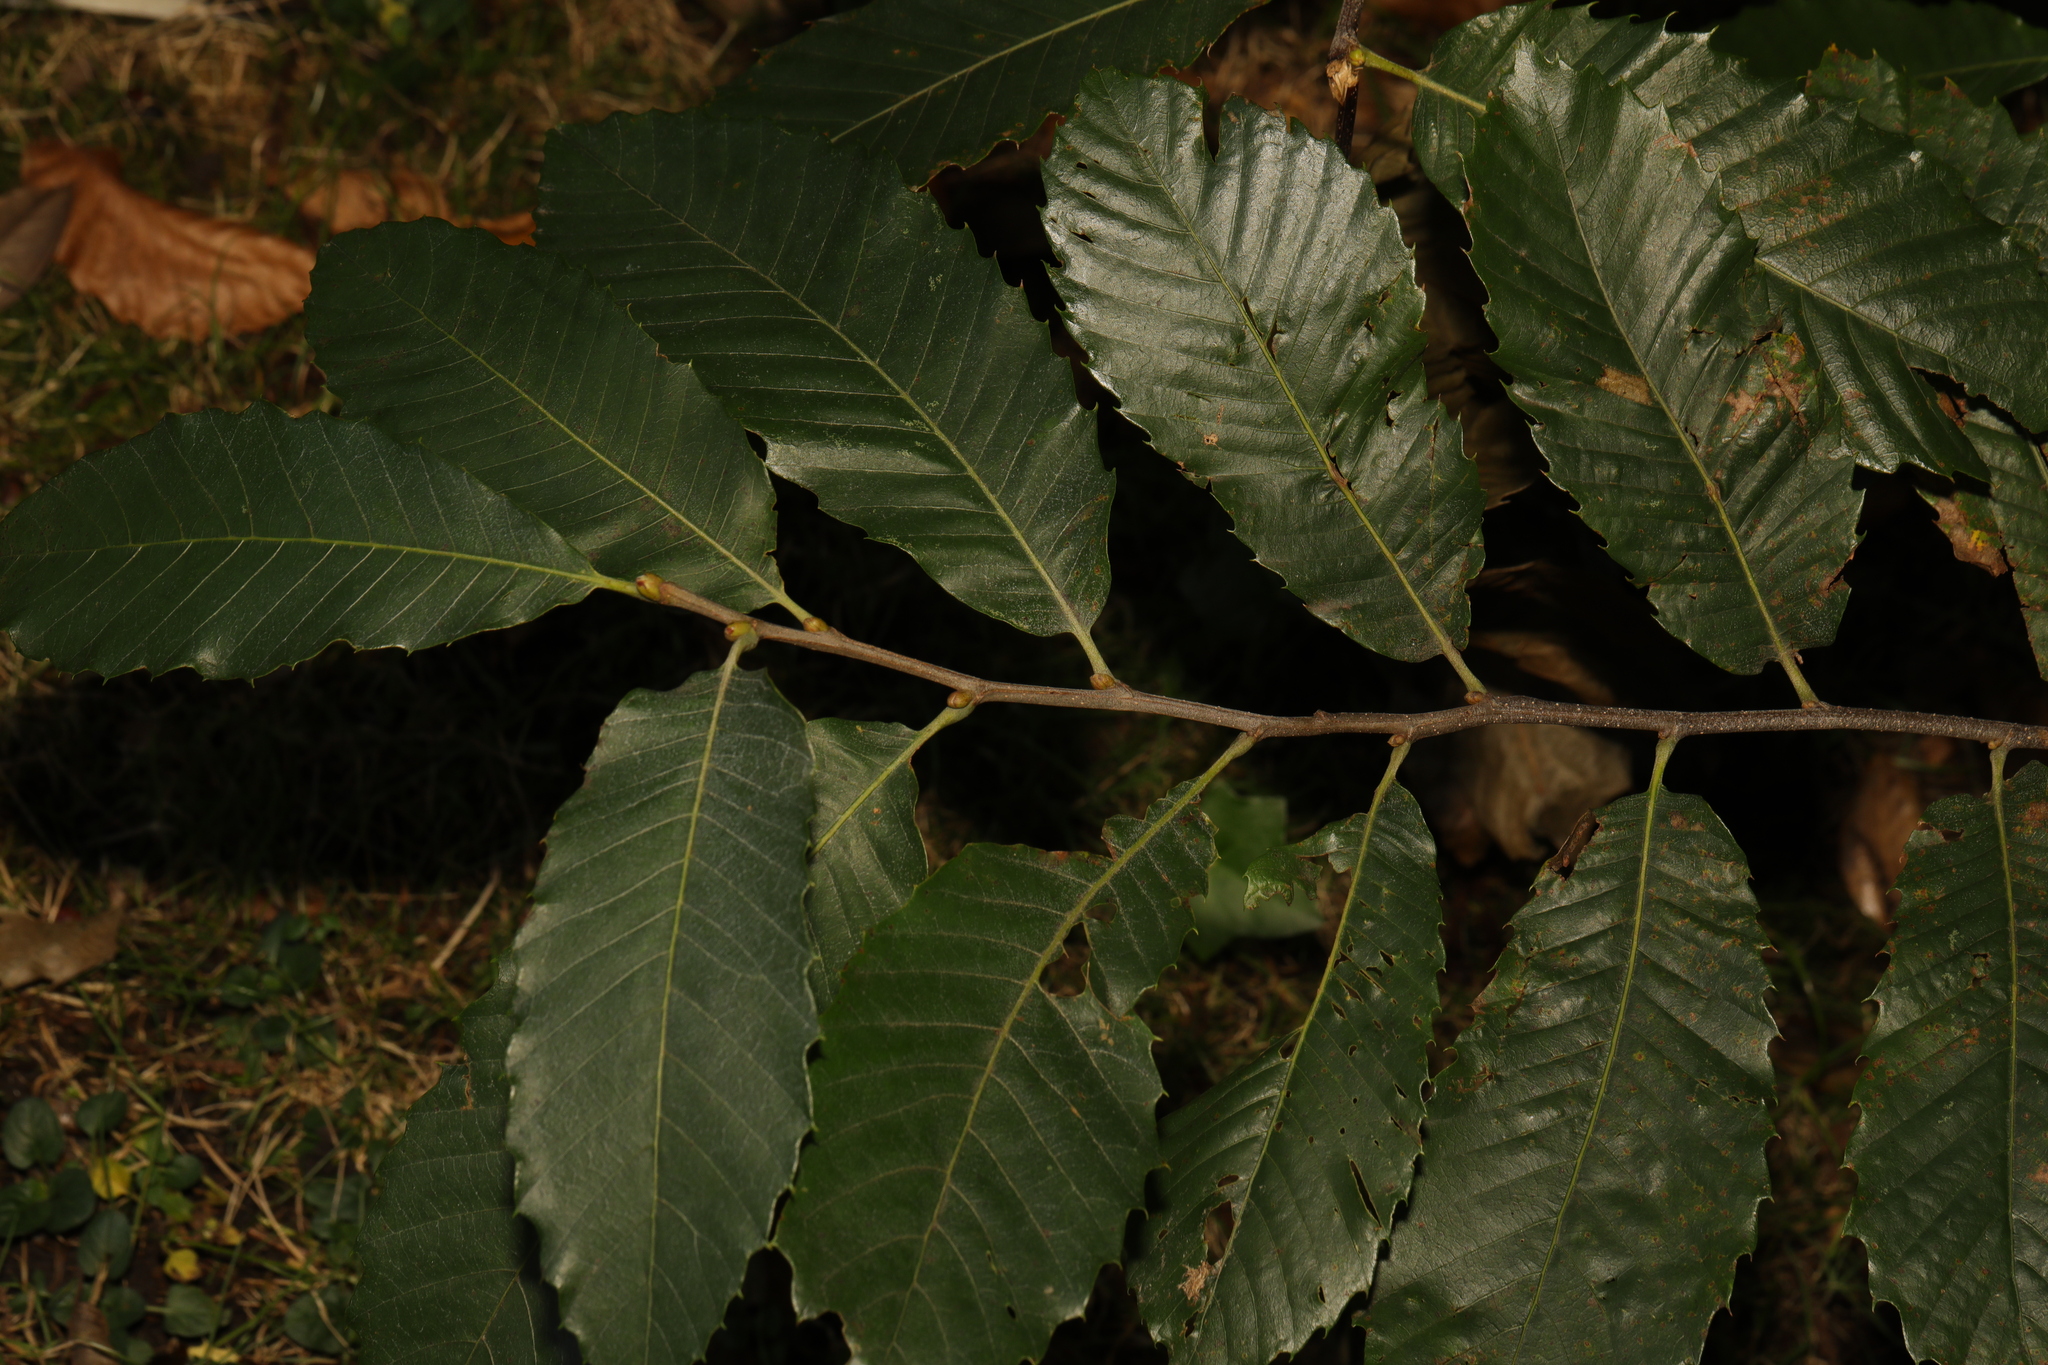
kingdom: Plantae
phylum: Tracheophyta
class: Magnoliopsida
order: Fagales
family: Fagaceae
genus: Castanea
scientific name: Castanea sativa
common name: Sweet chestnut
